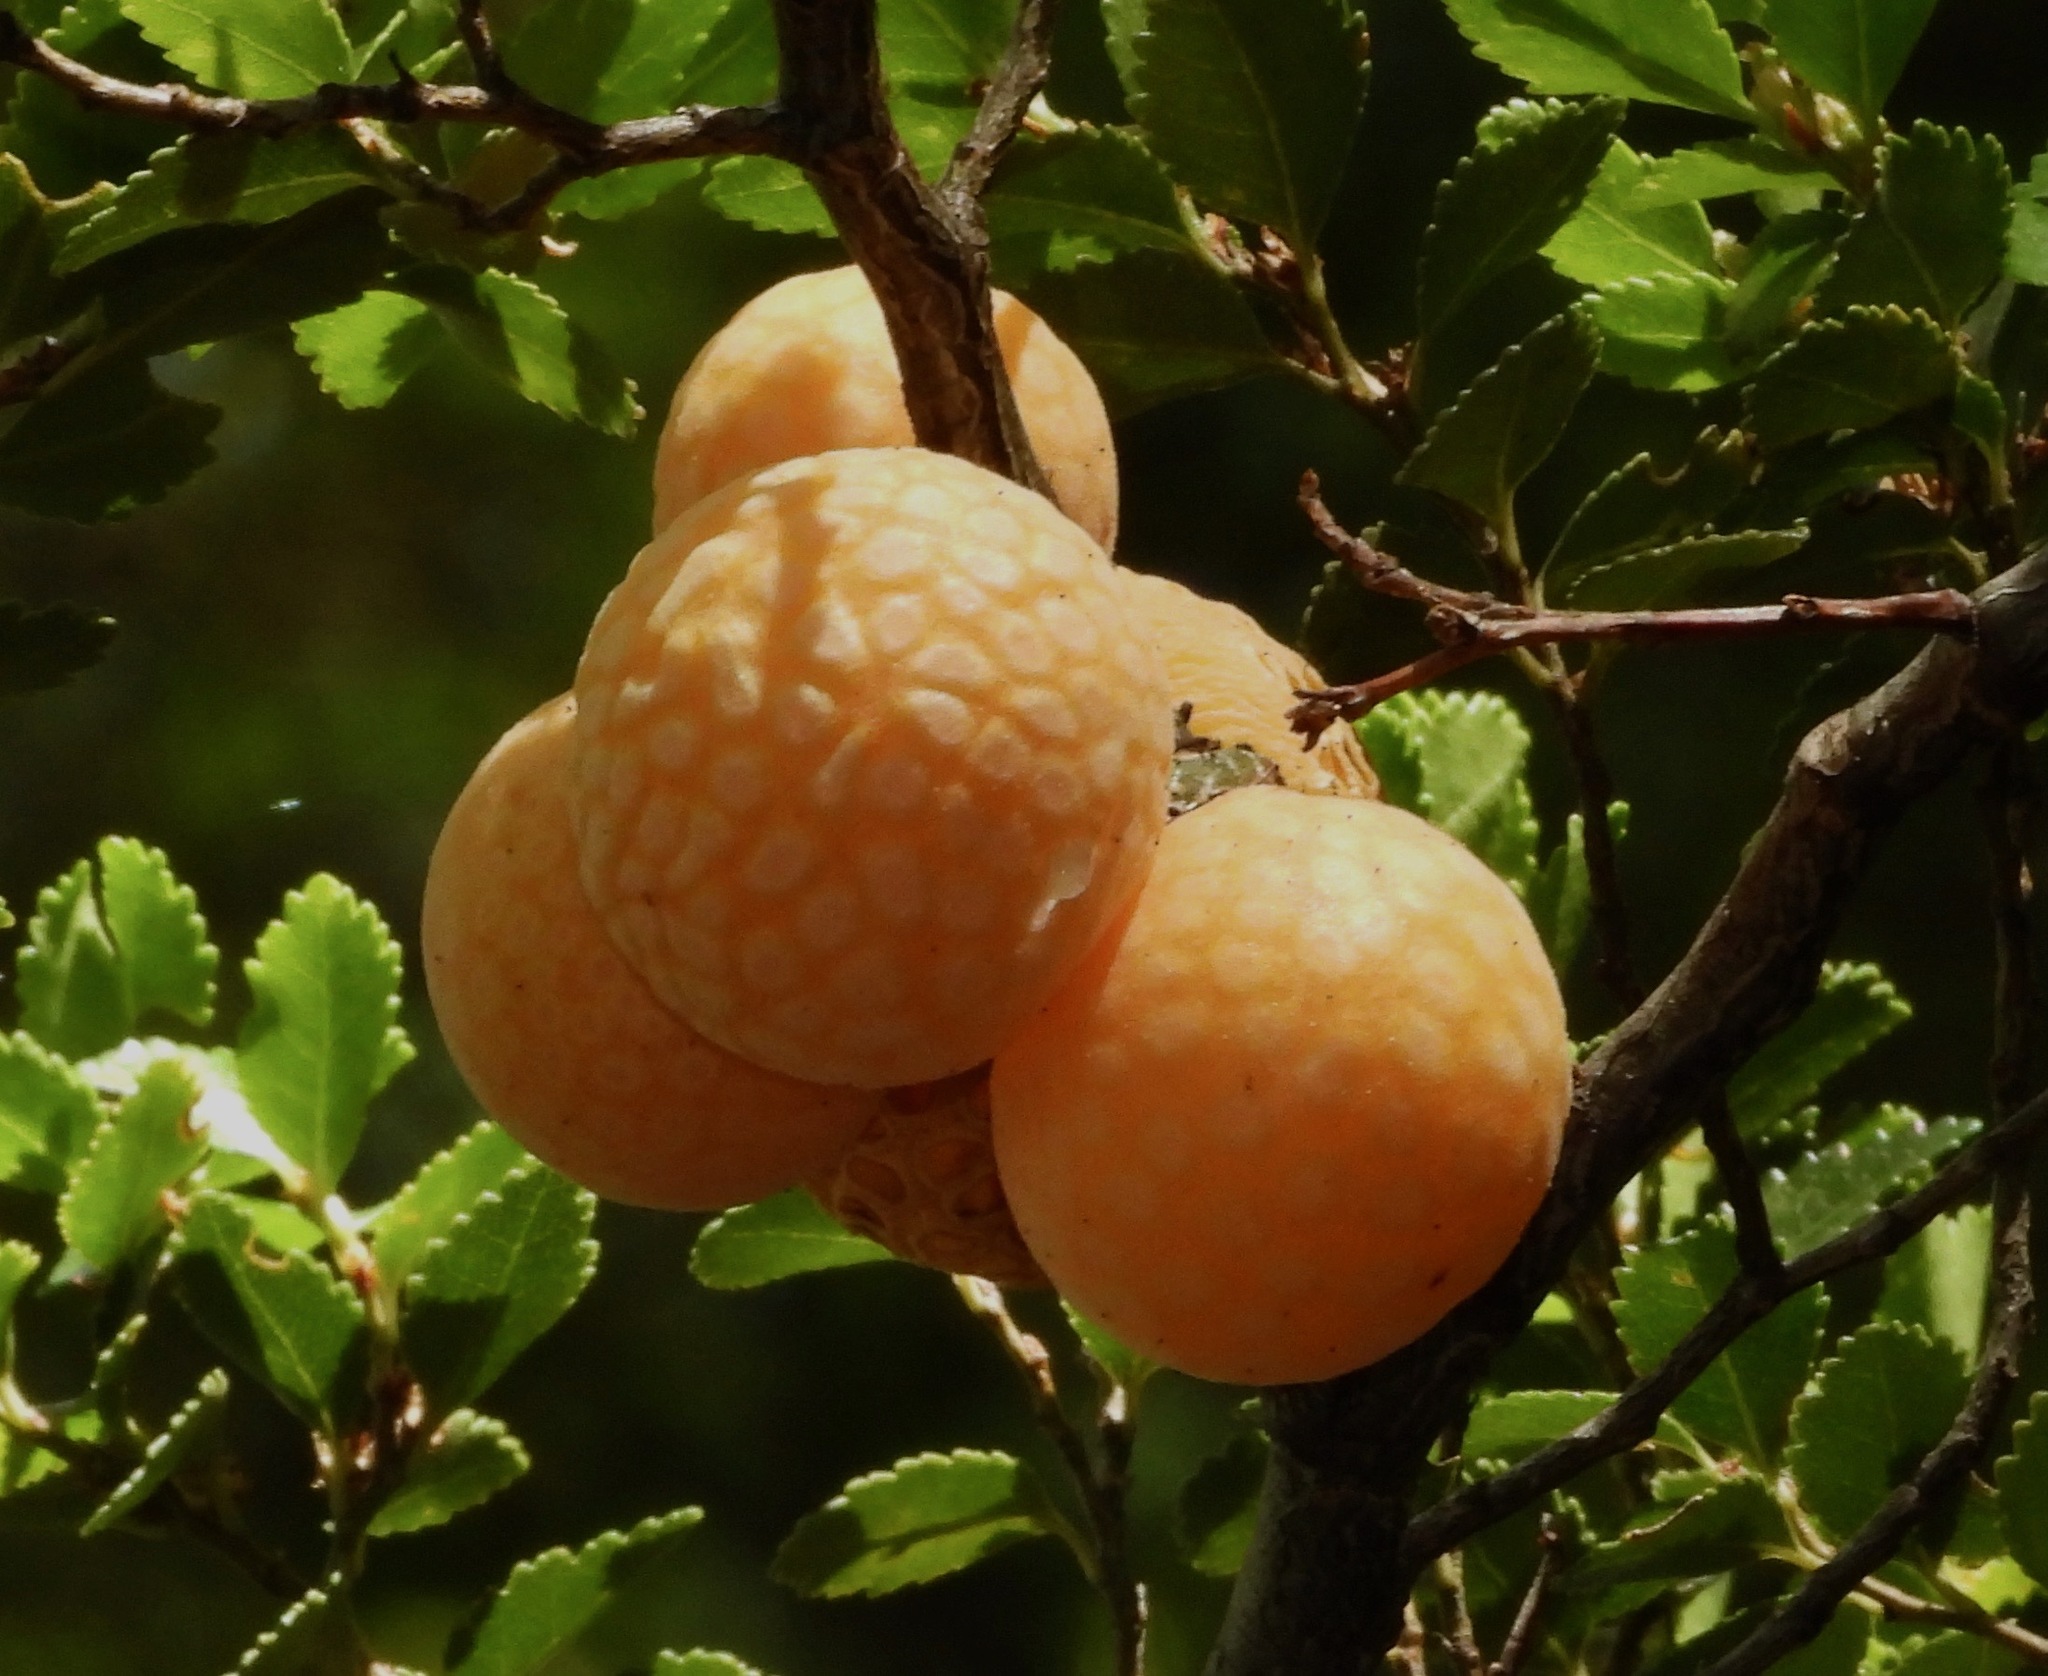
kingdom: Fungi
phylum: Ascomycota
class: Leotiomycetes
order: Cyttariales
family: Cyttariaceae
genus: Cyttaria
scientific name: Cyttaria darwinii
